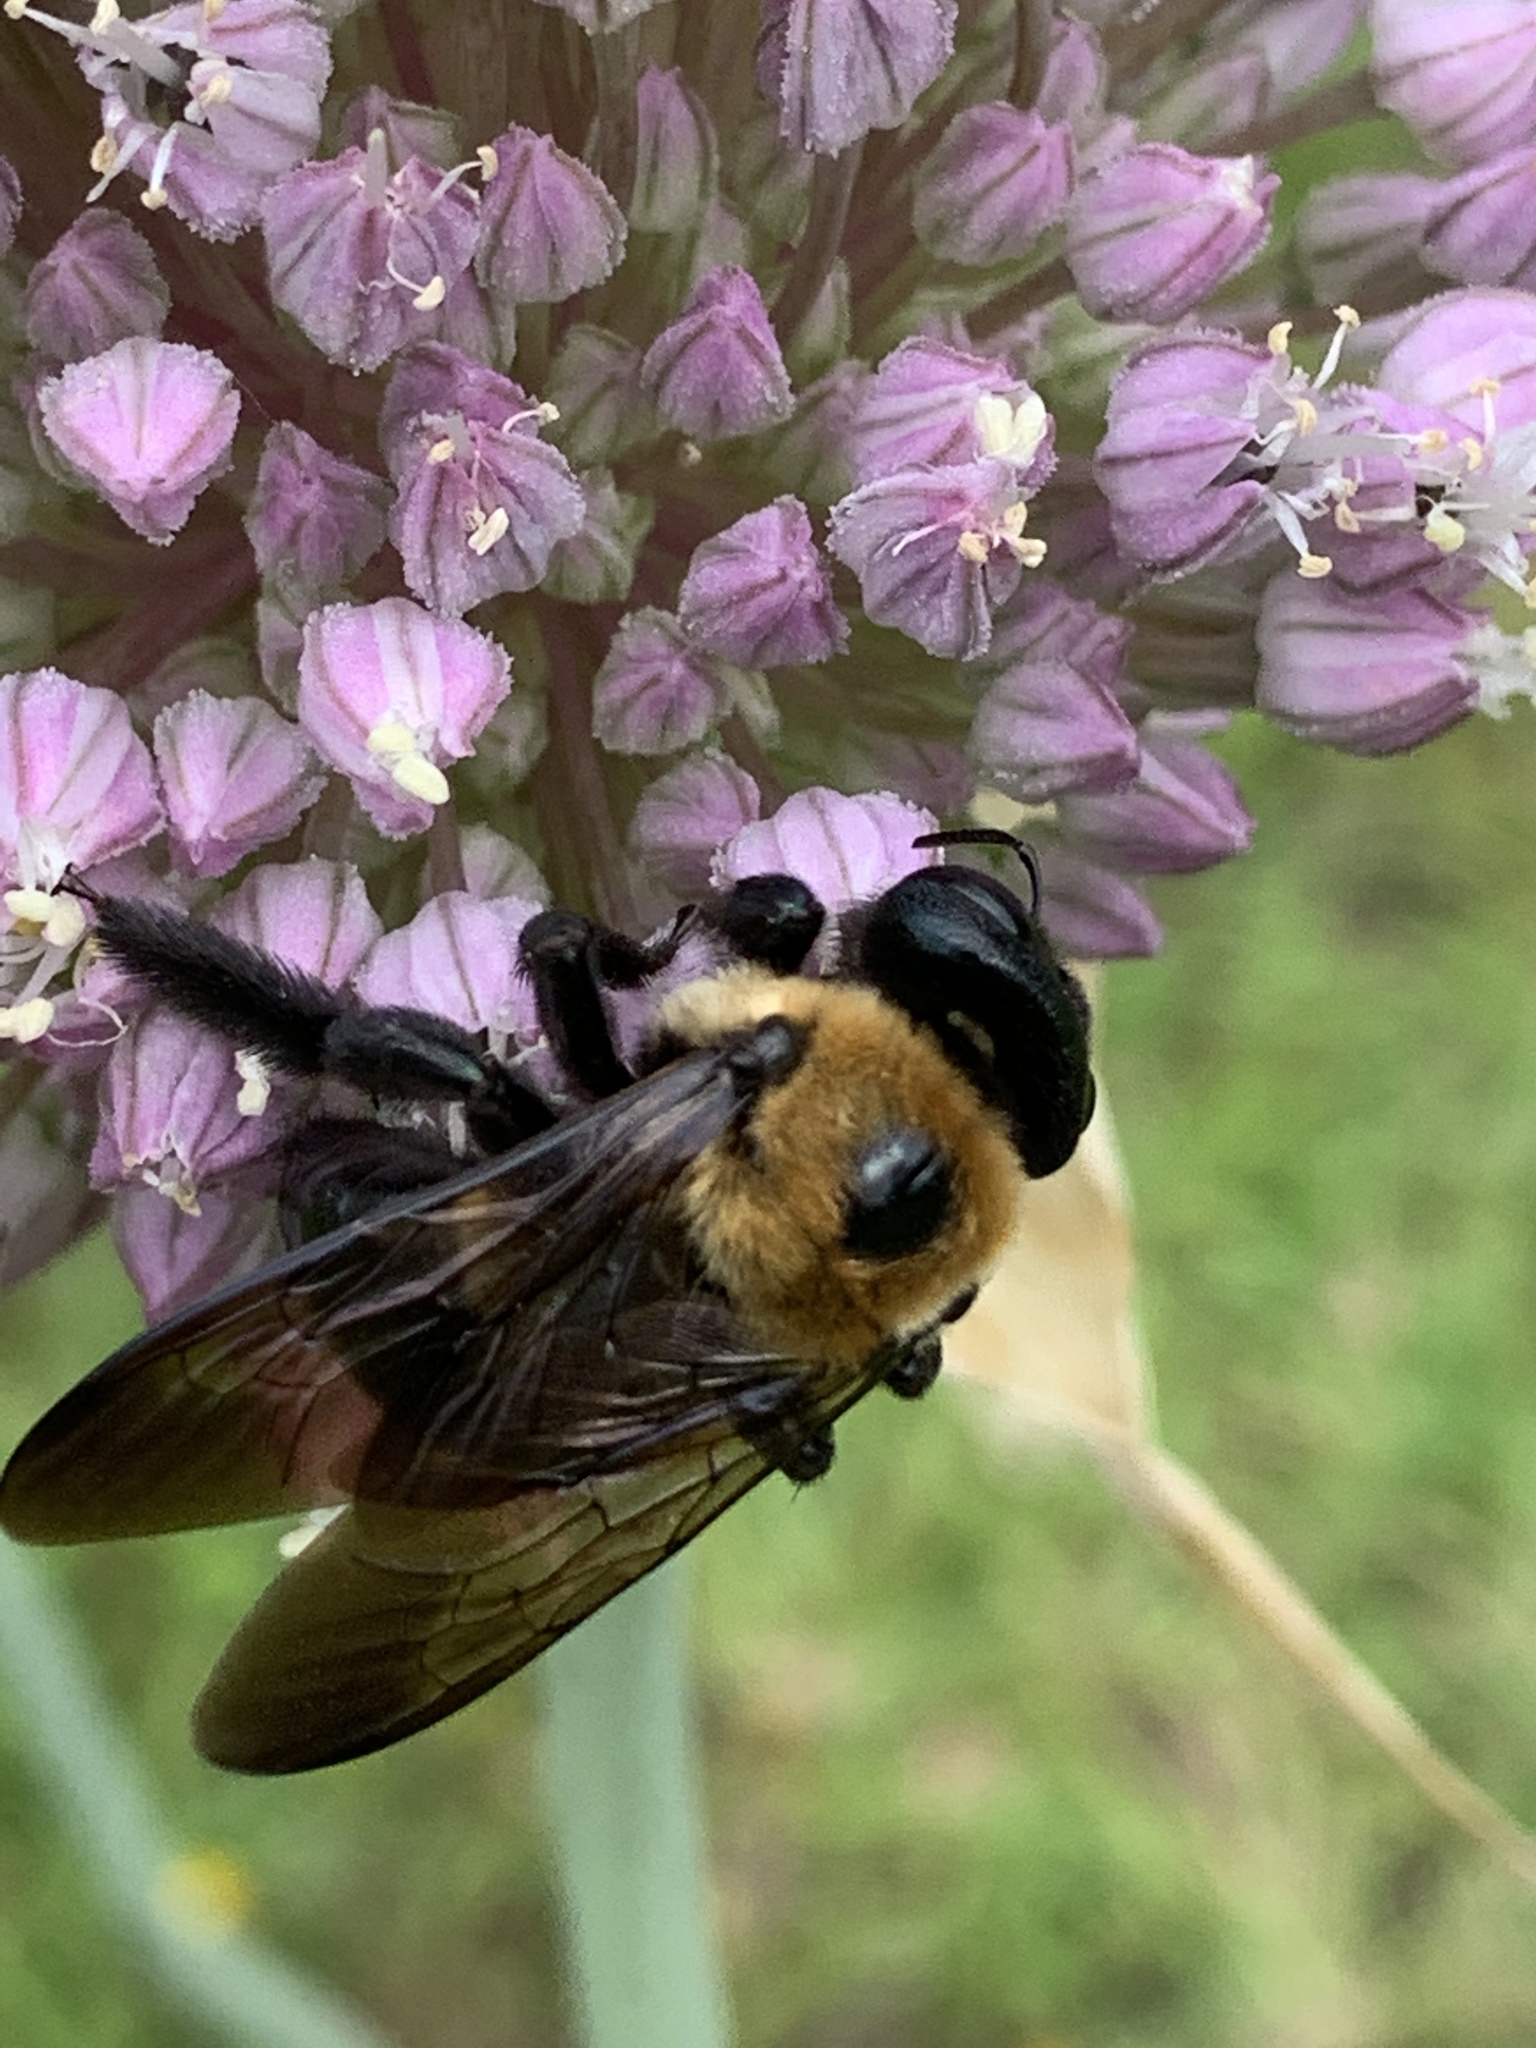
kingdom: Animalia
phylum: Arthropoda
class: Insecta
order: Hymenoptera
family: Apidae
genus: Xylocopa
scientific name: Xylocopa virginica
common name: Carpenter bee
